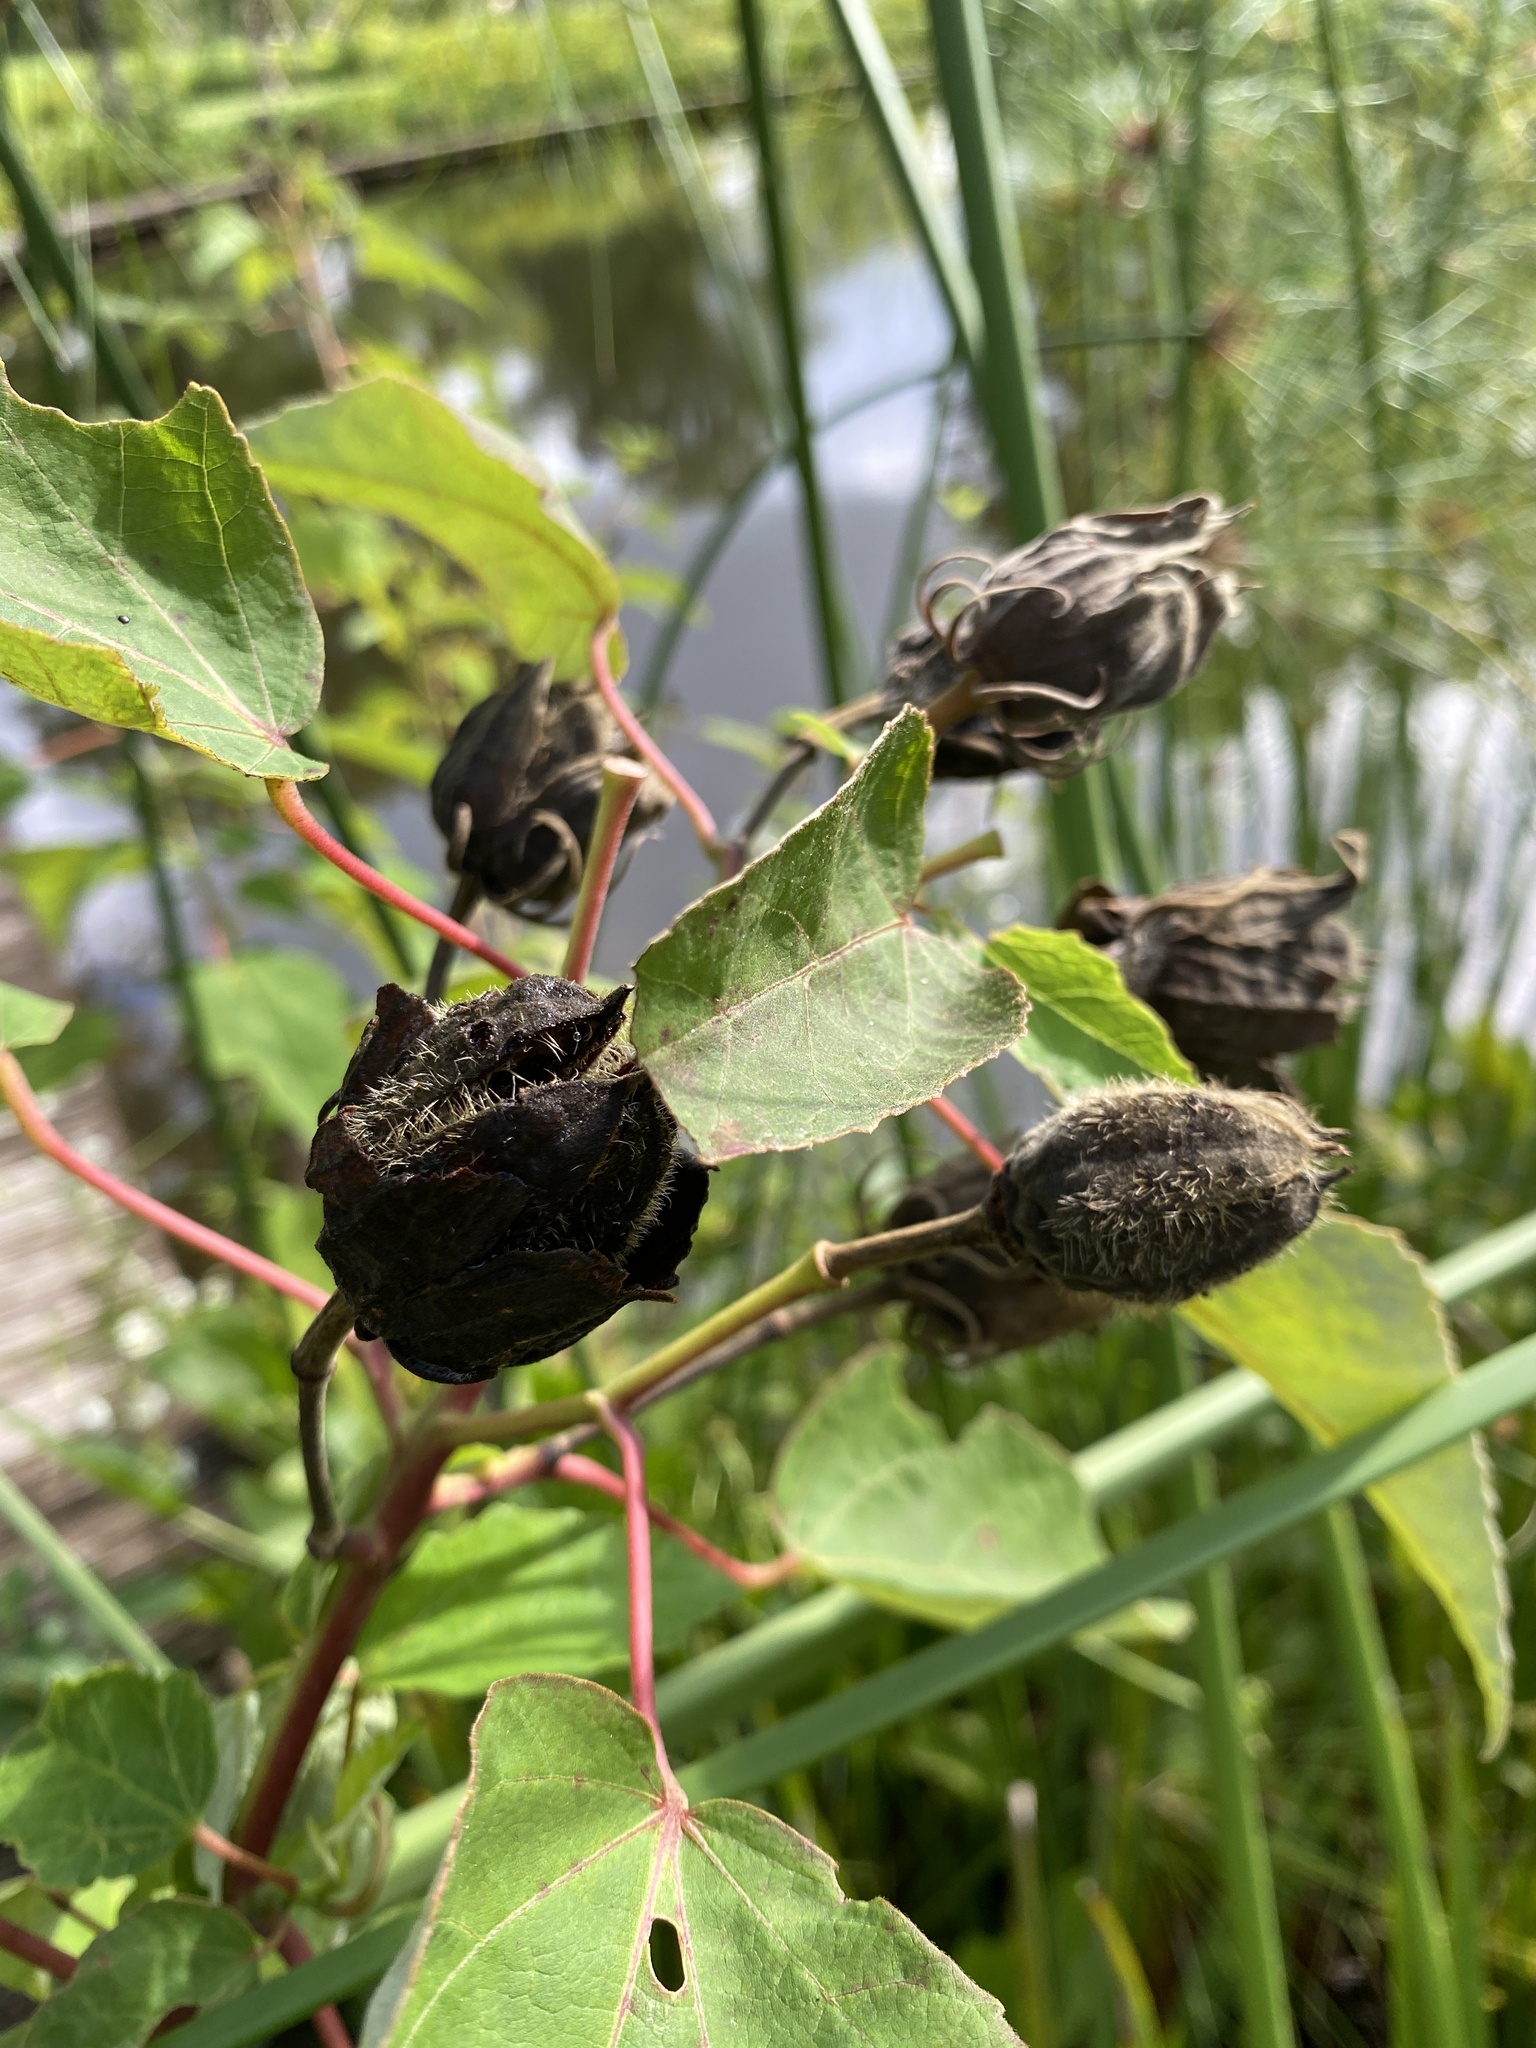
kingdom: Plantae
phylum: Tracheophyta
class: Magnoliopsida
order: Malvales
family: Malvaceae
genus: Hibiscus
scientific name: Hibiscus moscheutos
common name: Common rose-mallow
